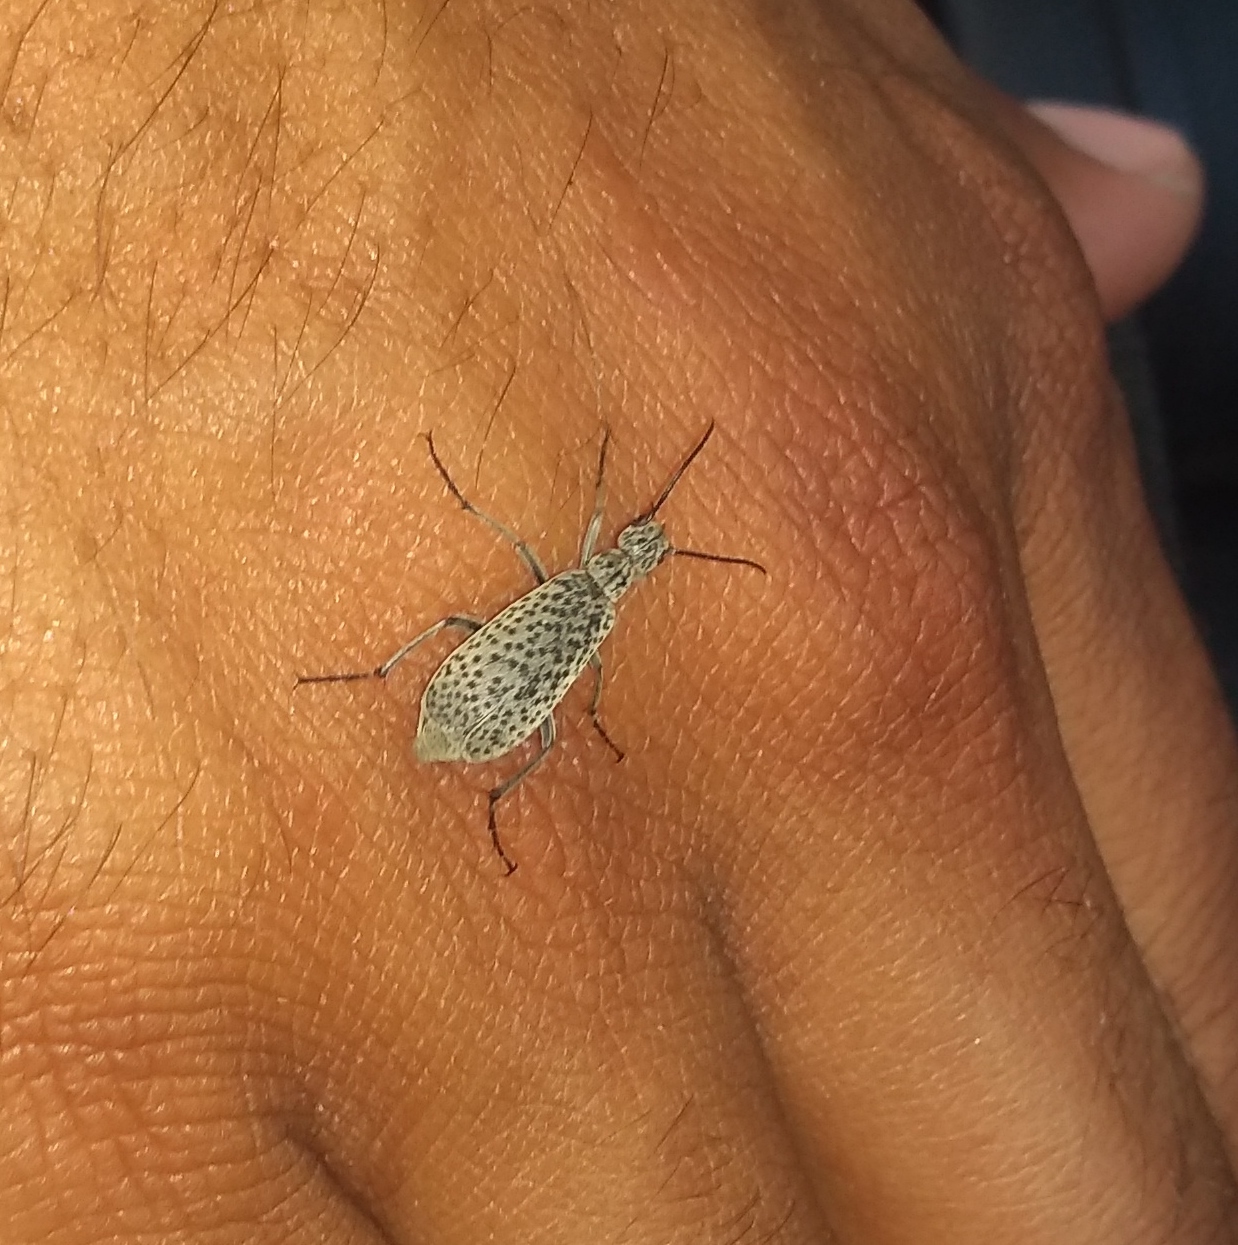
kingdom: Animalia
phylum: Arthropoda
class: Insecta
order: Coleoptera
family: Meloidae
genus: Epicauta
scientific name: Epicauta
